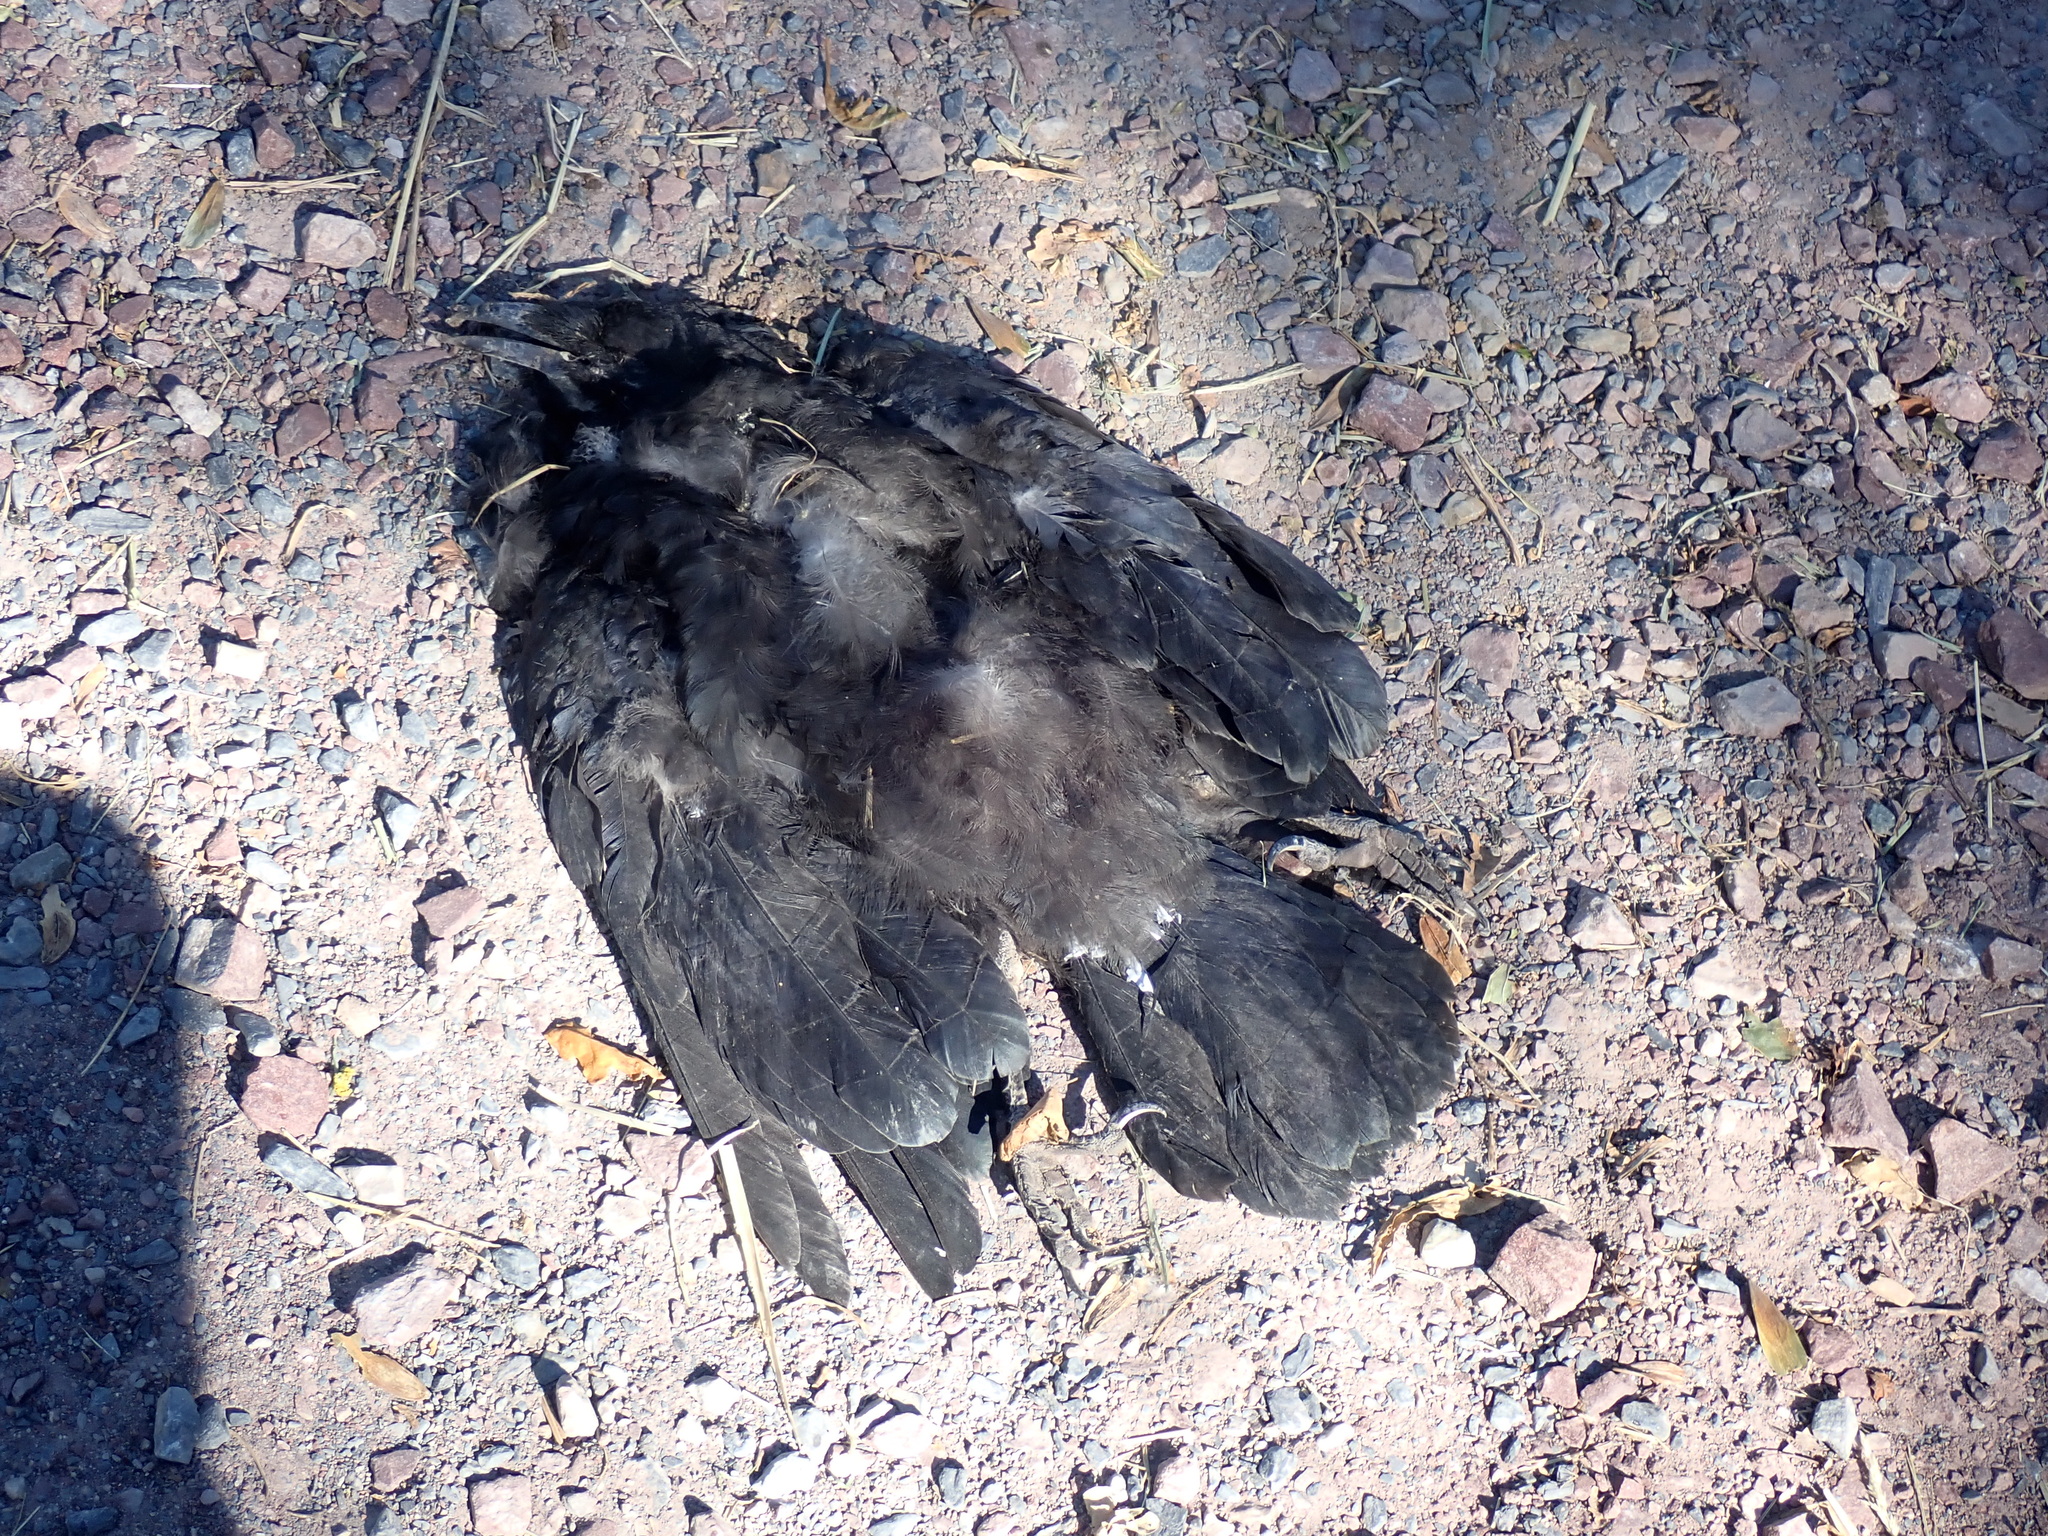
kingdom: Animalia
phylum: Chordata
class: Aves
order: Passeriformes
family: Corvidae
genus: Corvus
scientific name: Corvus corone
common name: Carrion crow
